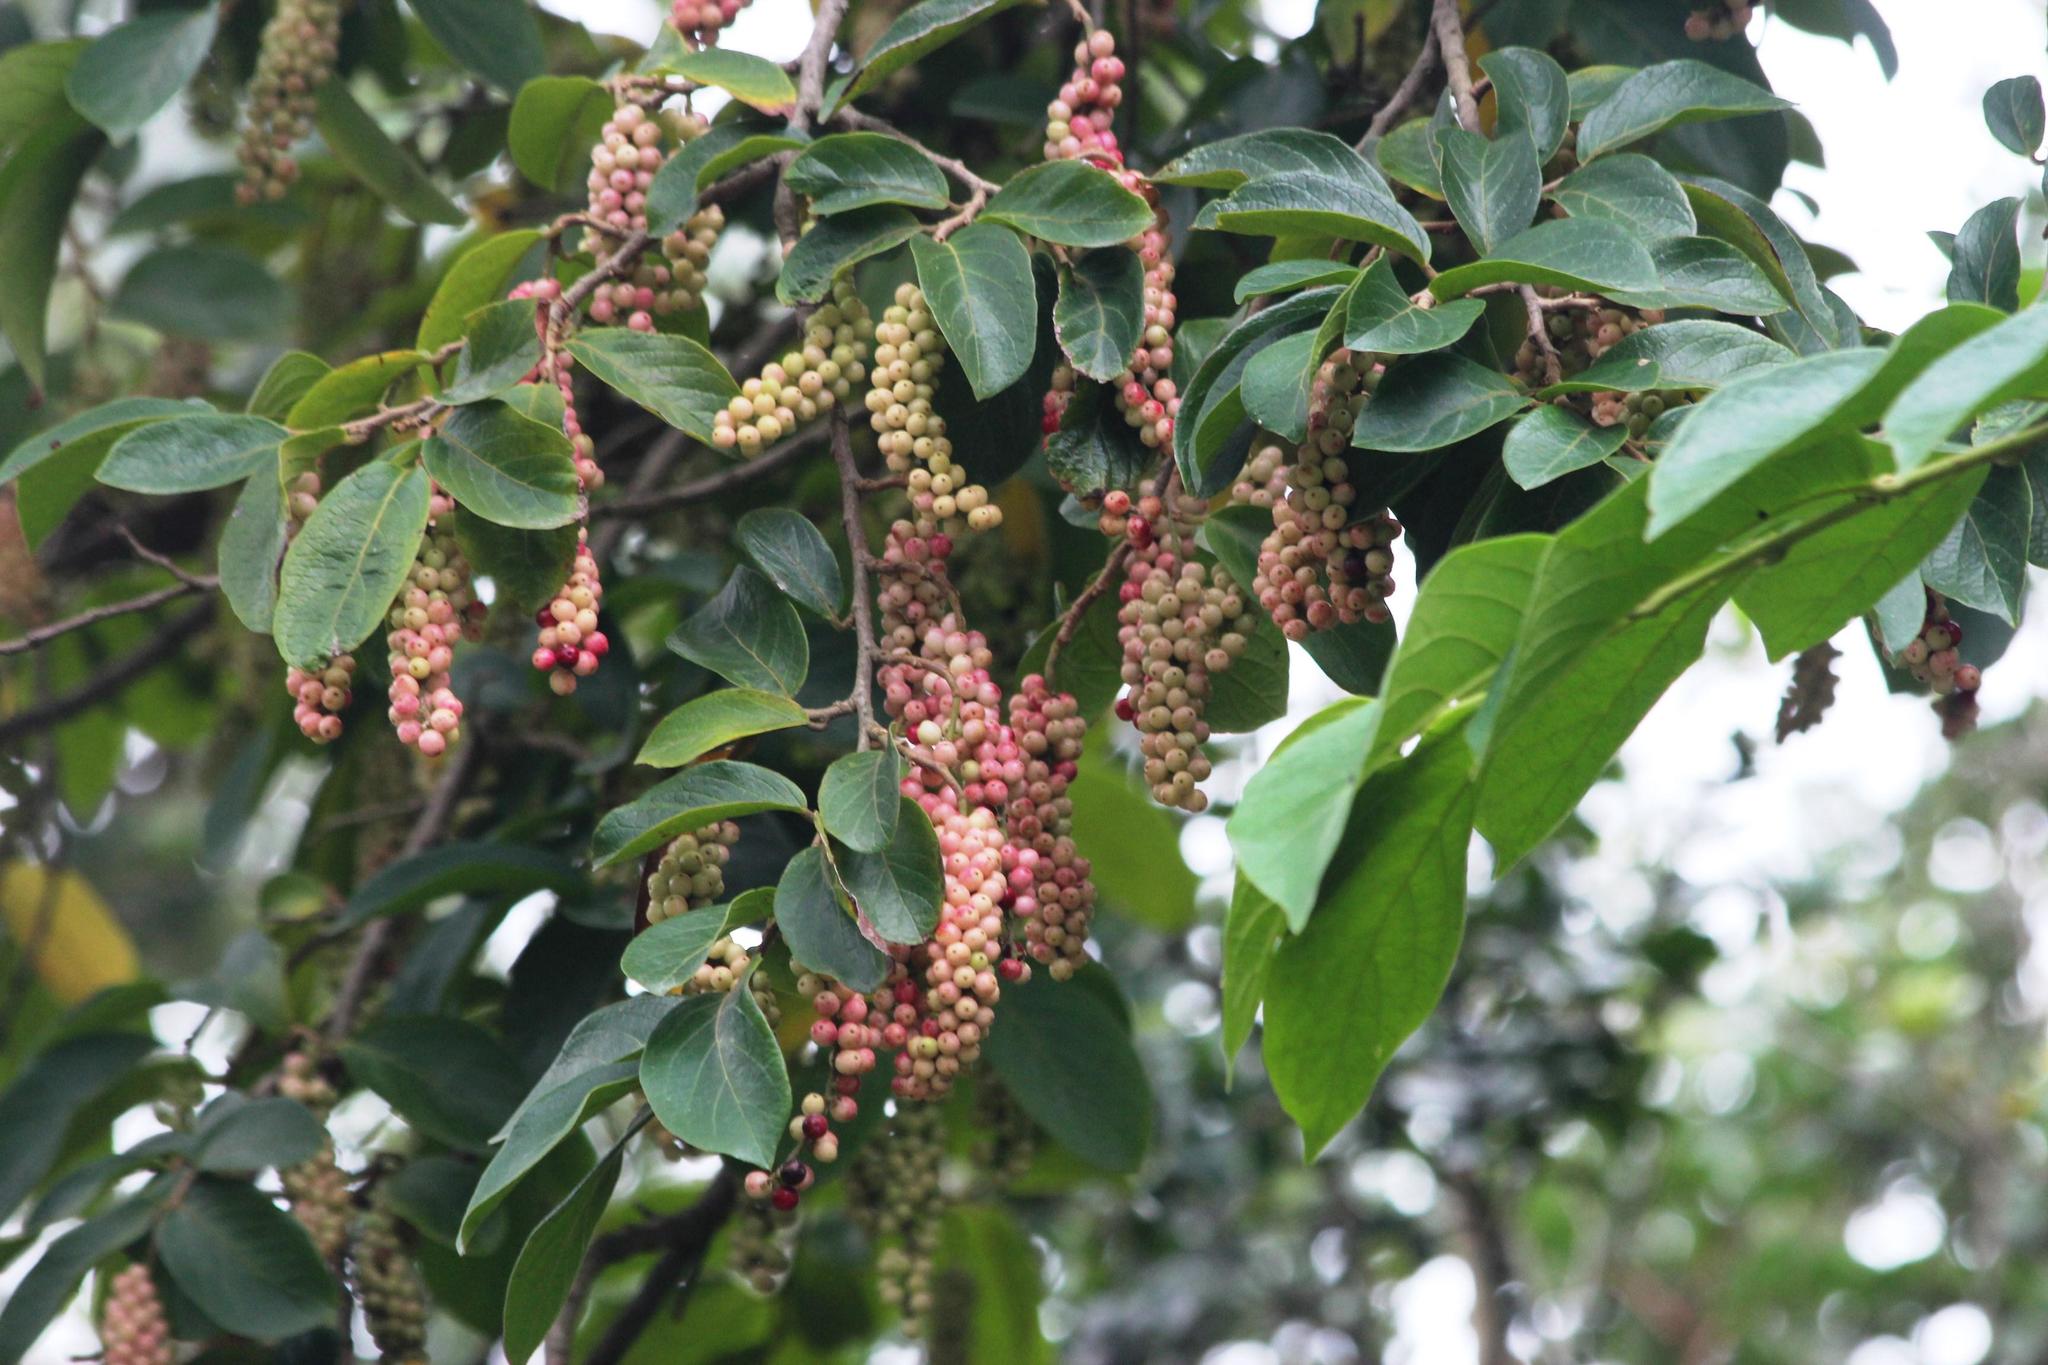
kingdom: Plantae
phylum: Tracheophyta
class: Magnoliopsida
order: Malpighiales
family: Phyllanthaceae
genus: Antidesma
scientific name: Antidesma venosum
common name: Tassel-berry
